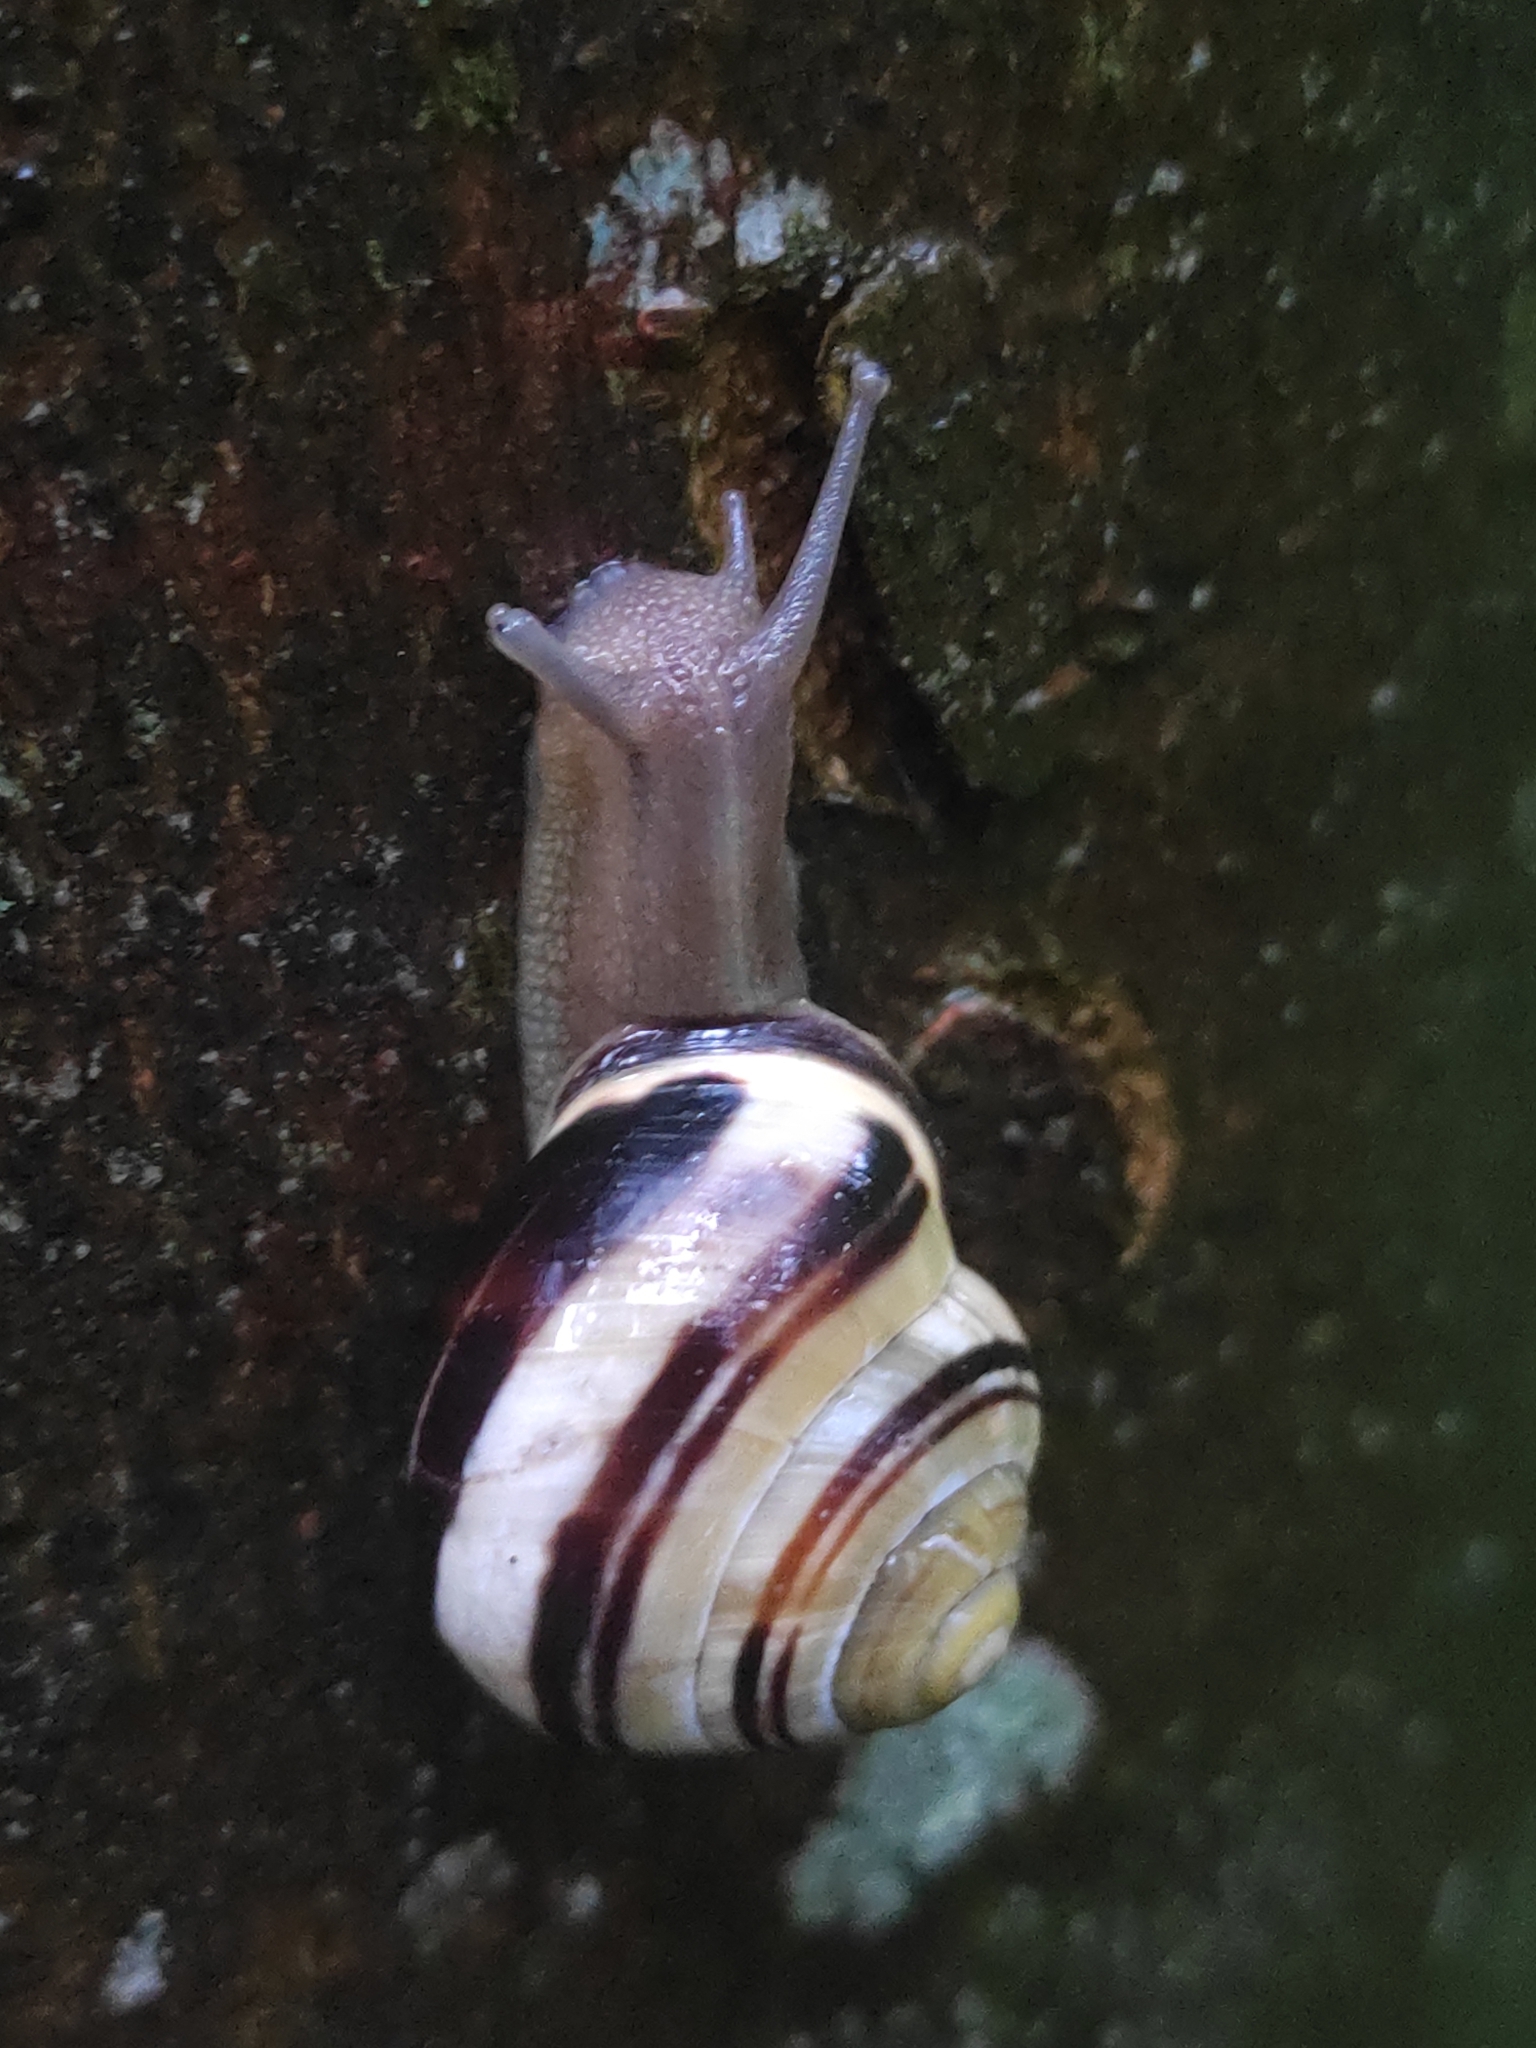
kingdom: Animalia
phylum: Mollusca
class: Gastropoda
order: Stylommatophora
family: Helicidae
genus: Cepaea
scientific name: Cepaea nemoralis
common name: Grovesnail
